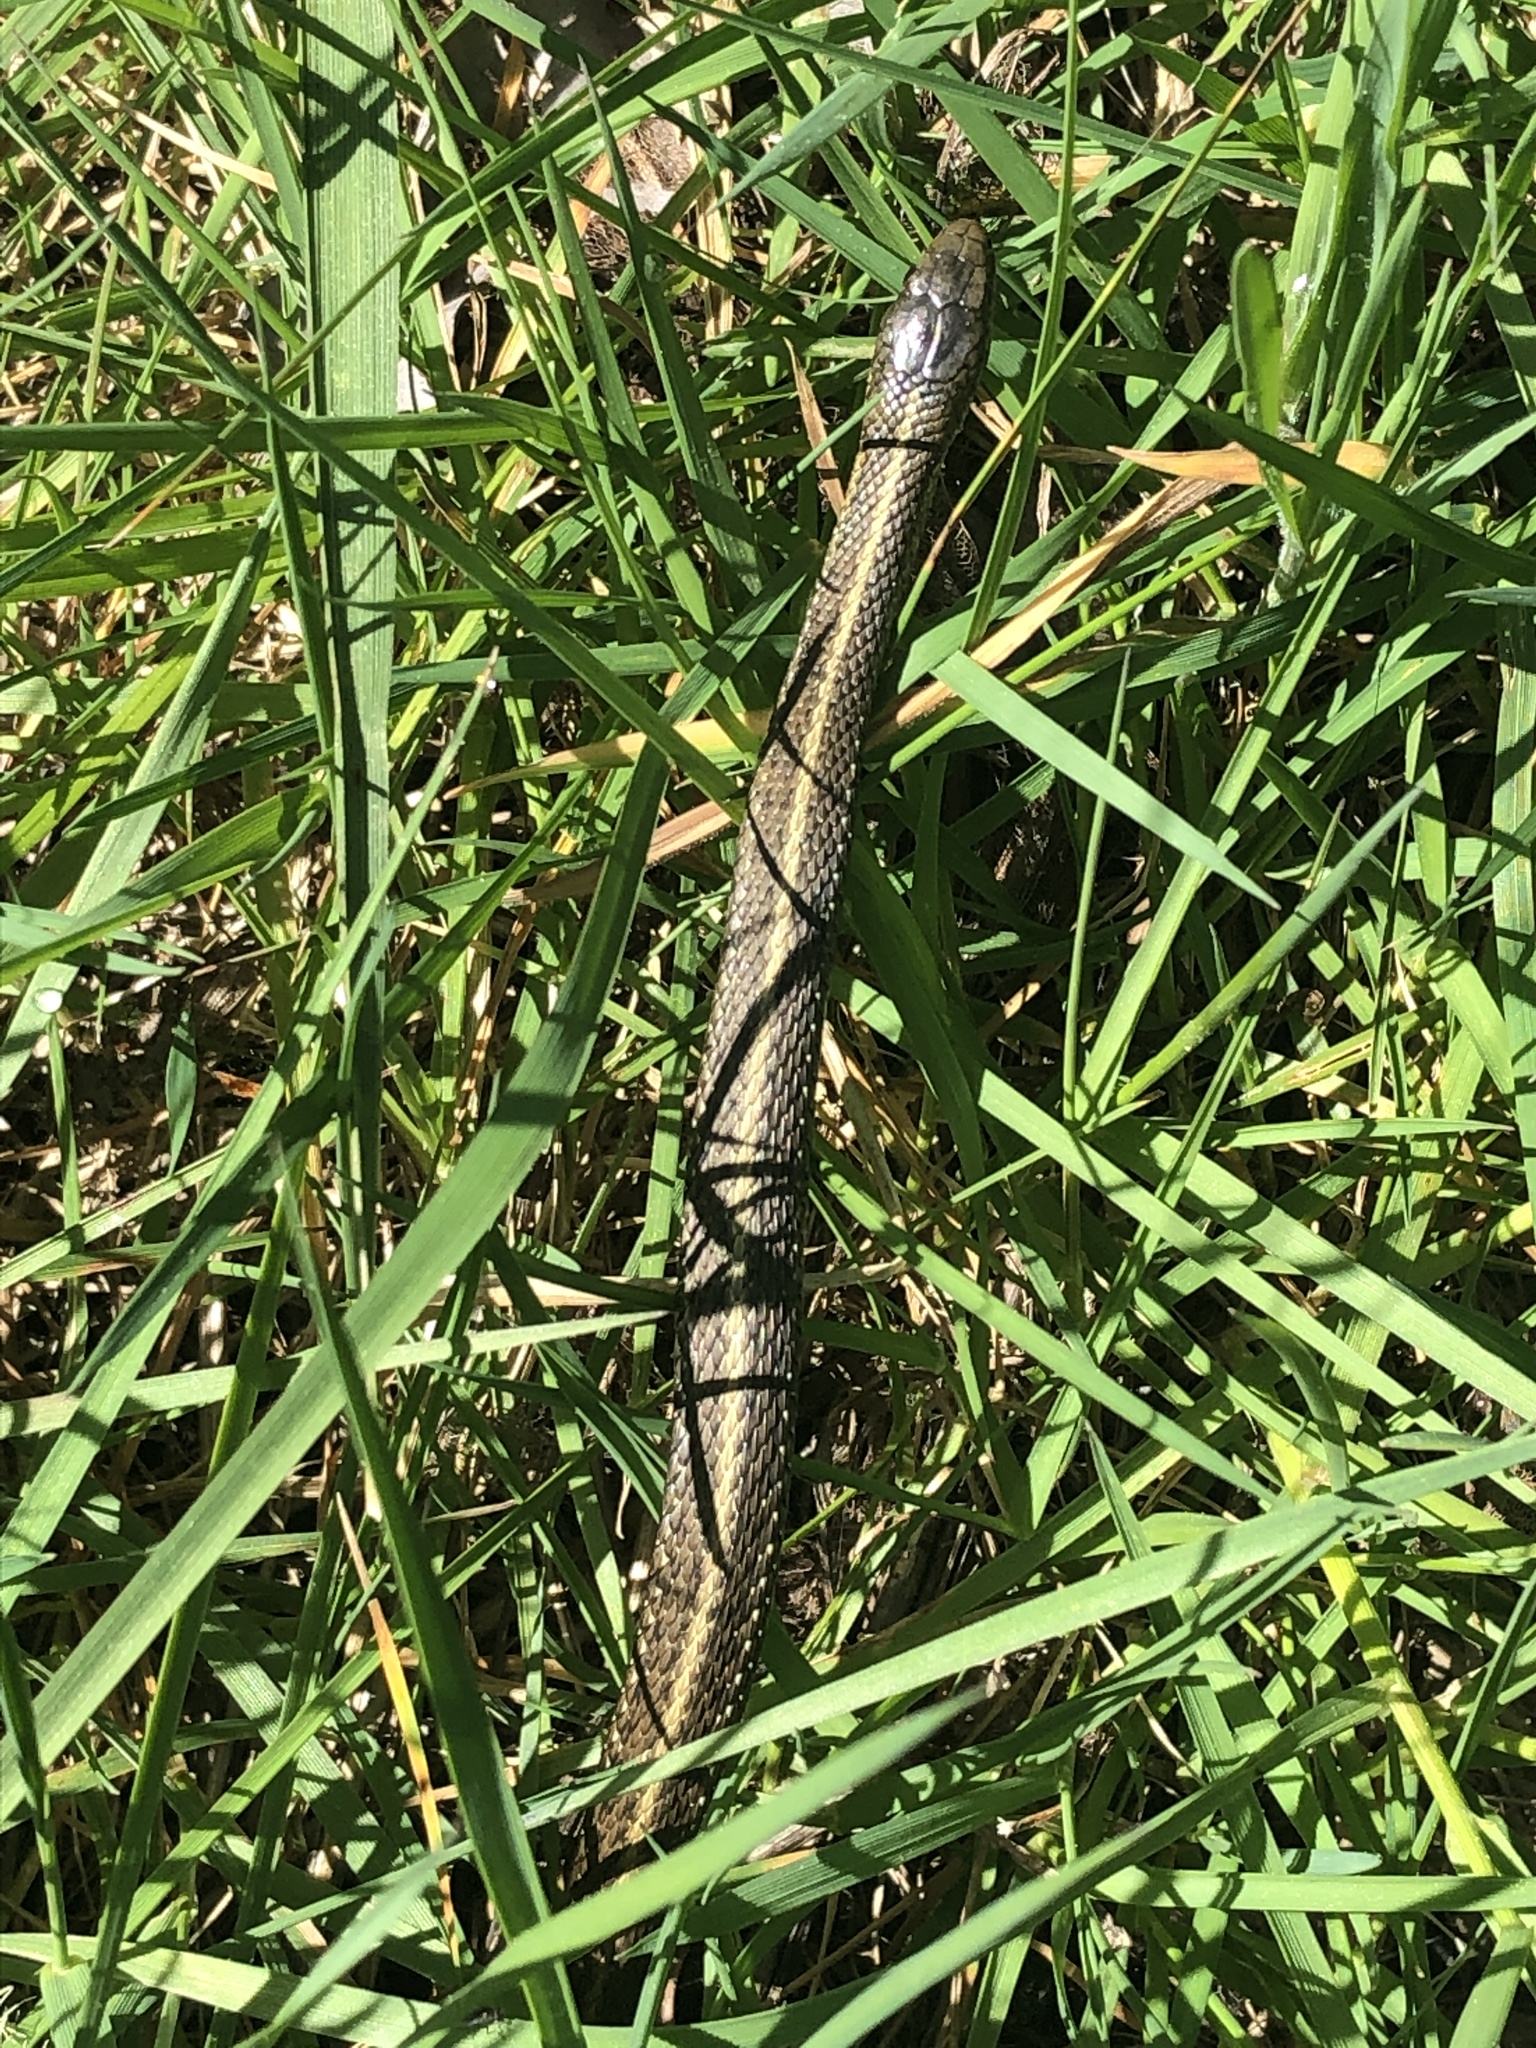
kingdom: Animalia
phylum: Chordata
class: Squamata
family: Colubridae
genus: Thamnophis
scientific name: Thamnophis ordinoides
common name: Northwestern garter snake
